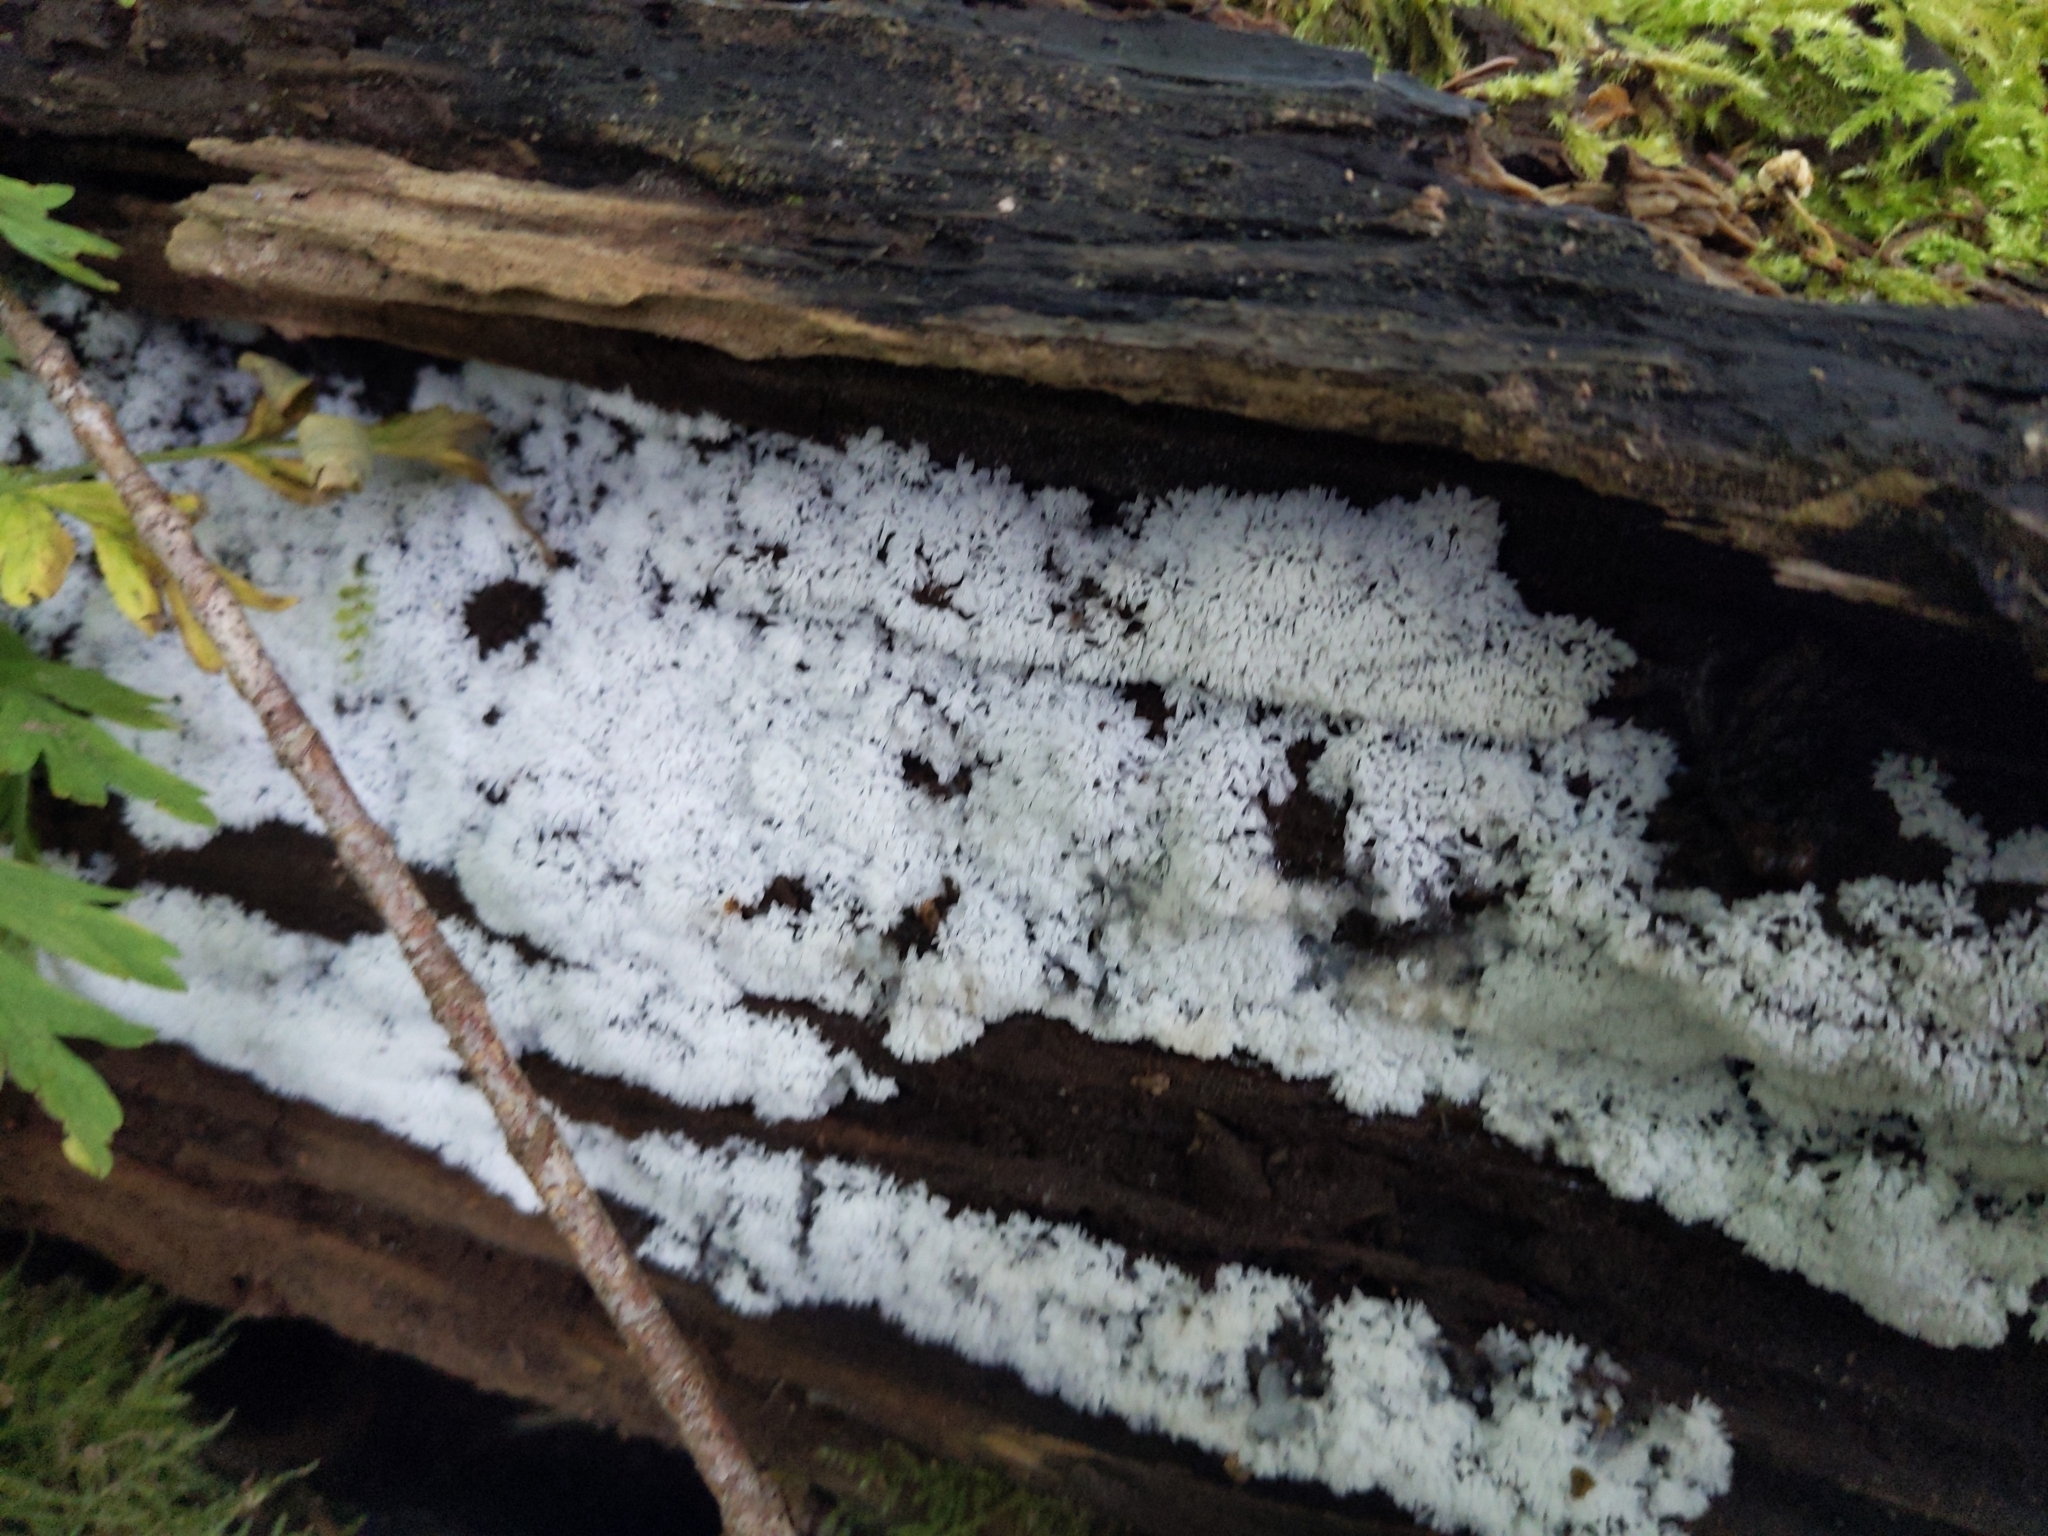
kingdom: Protozoa
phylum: Mycetozoa
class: Protosteliomycetes
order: Ceratiomyxales
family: Ceratiomyxaceae
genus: Ceratiomyxa
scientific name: Ceratiomyxa fruticulosa
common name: Honeycomb coral slime mold
